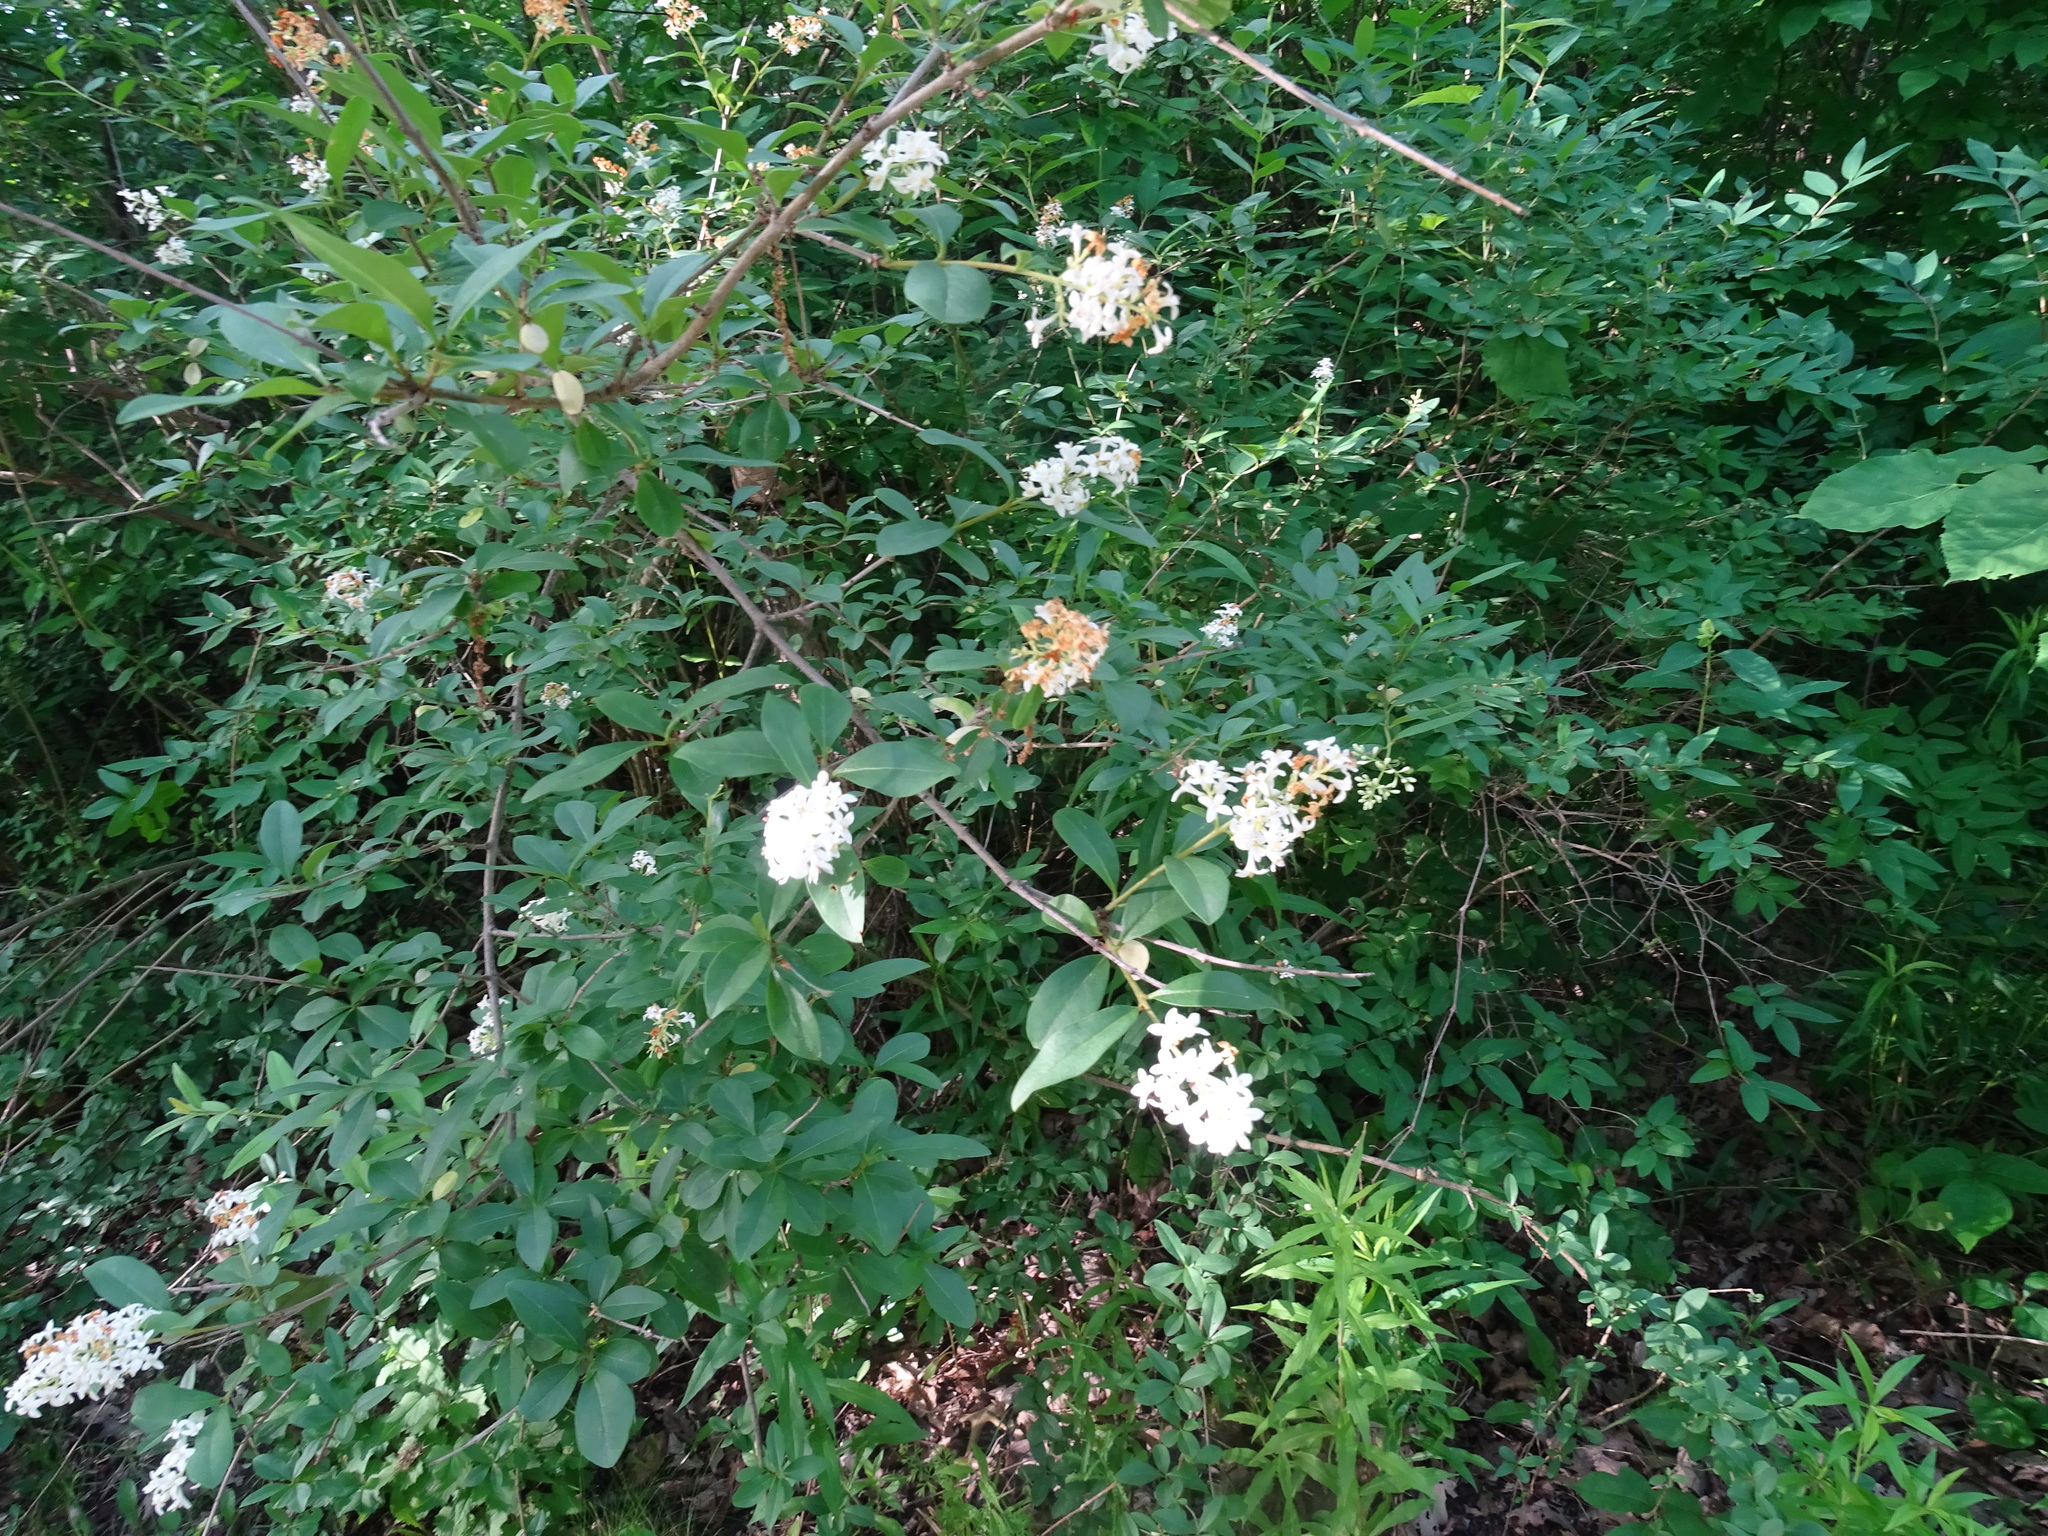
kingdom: Plantae
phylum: Tracheophyta
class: Magnoliopsida
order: Lamiales
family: Oleaceae
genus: Ligustrum
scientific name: Ligustrum vulgare
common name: Wild privet
